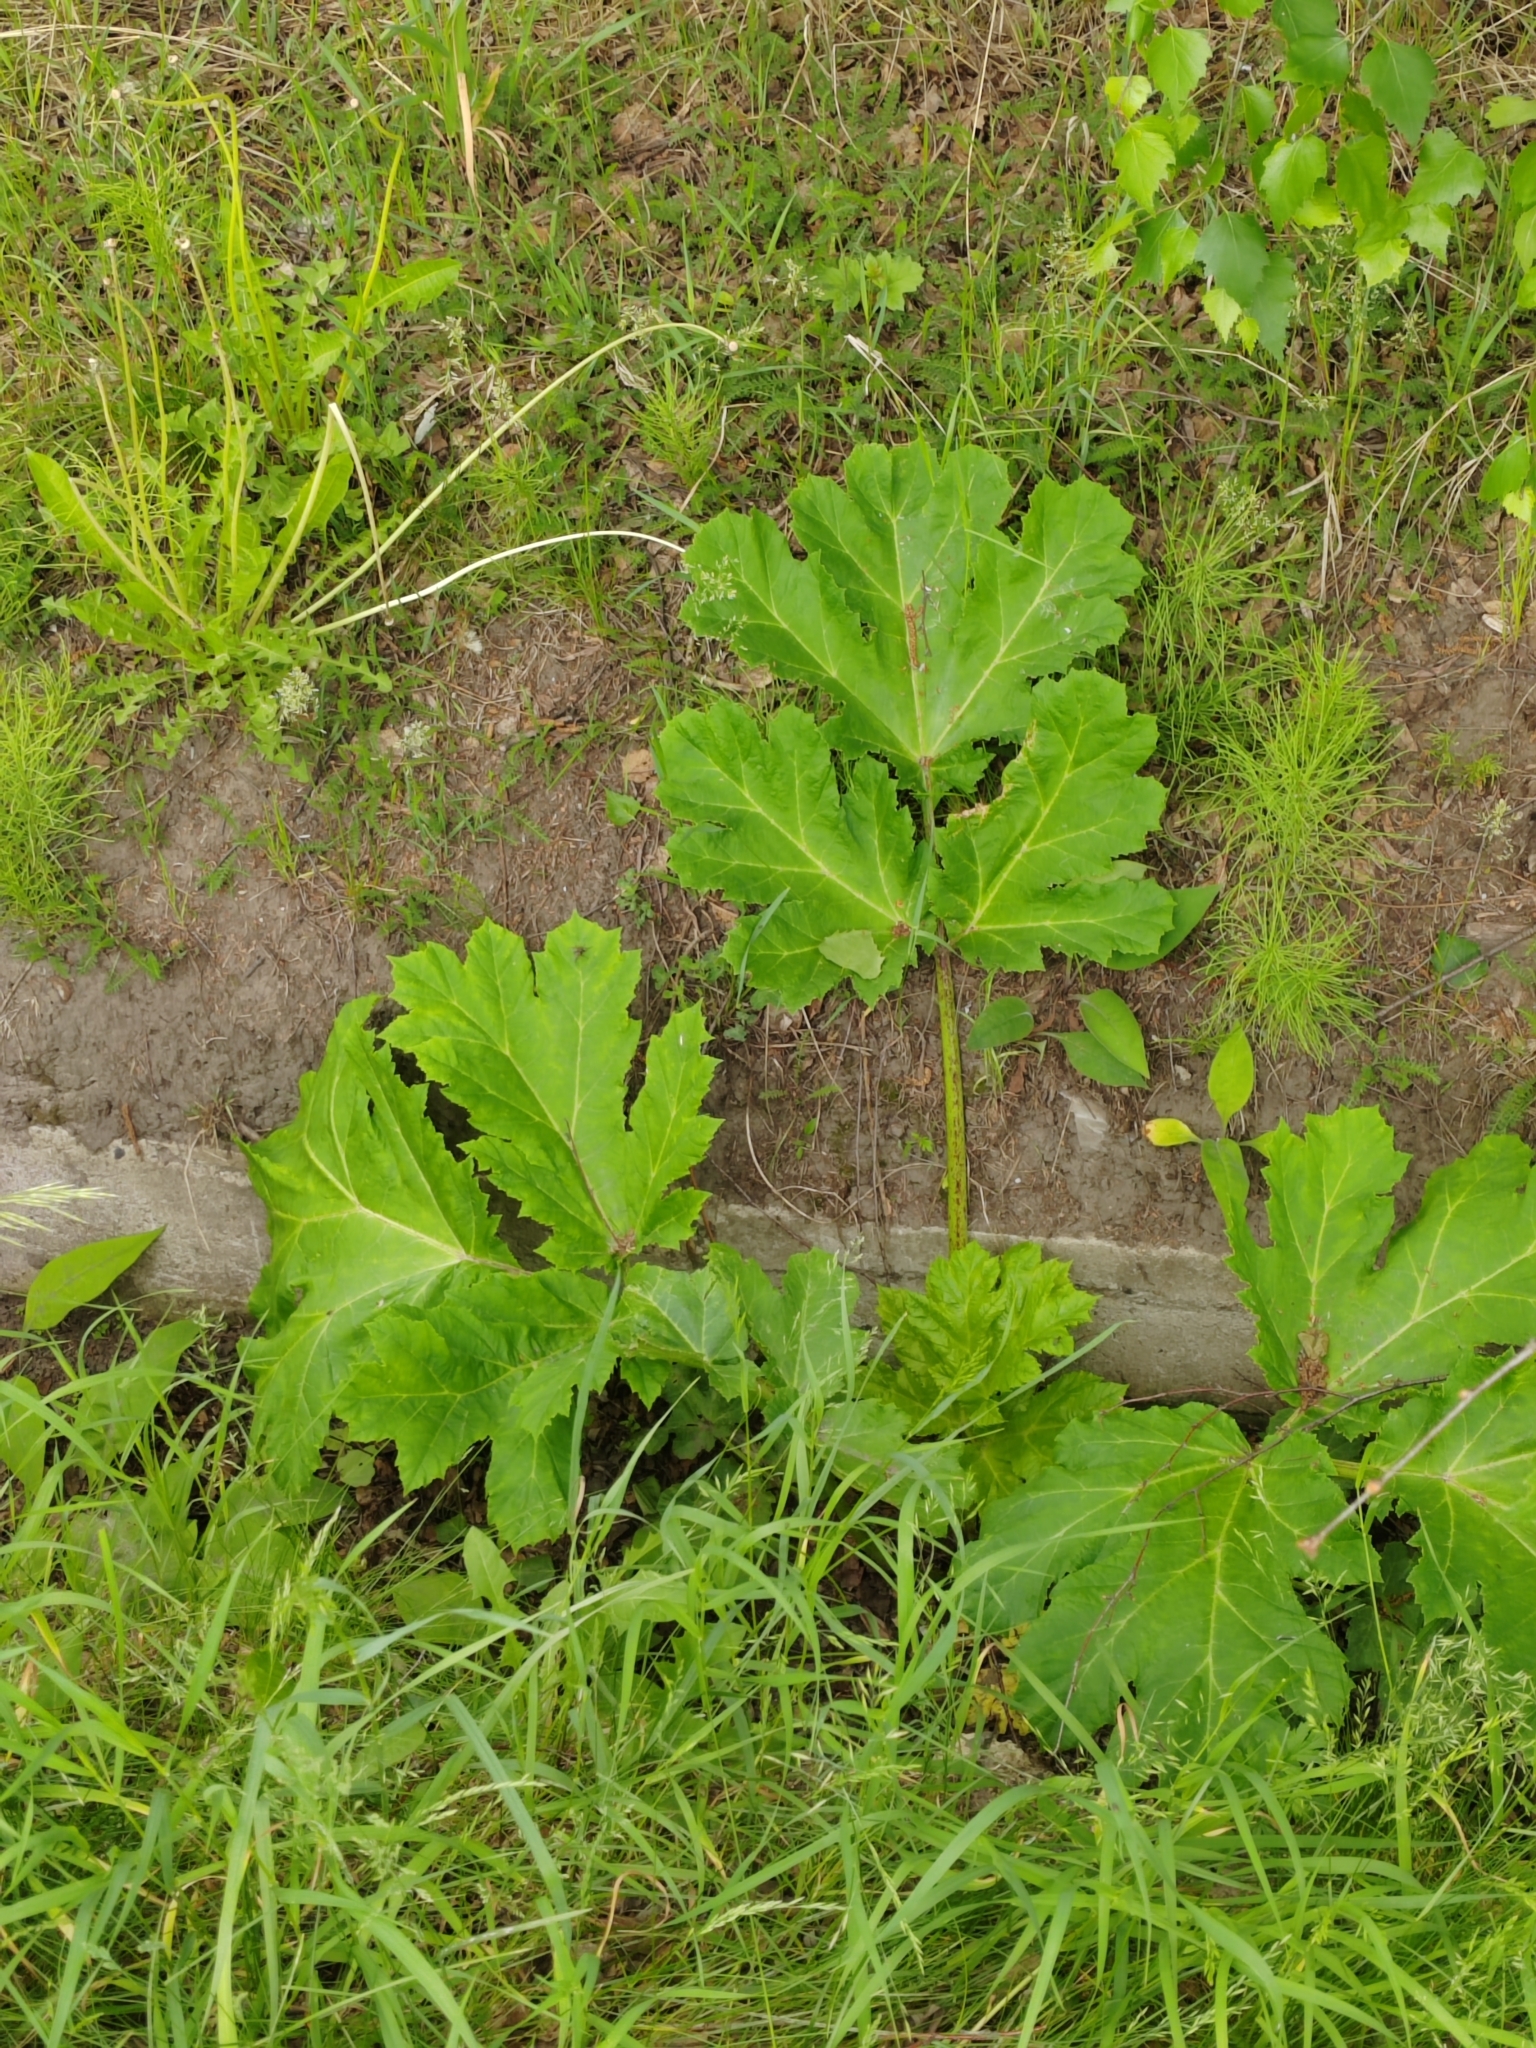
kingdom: Plantae
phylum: Tracheophyta
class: Magnoliopsida
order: Apiales
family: Apiaceae
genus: Heracleum
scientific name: Heracleum sosnowskyi
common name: Sosnowsky's hogweed
